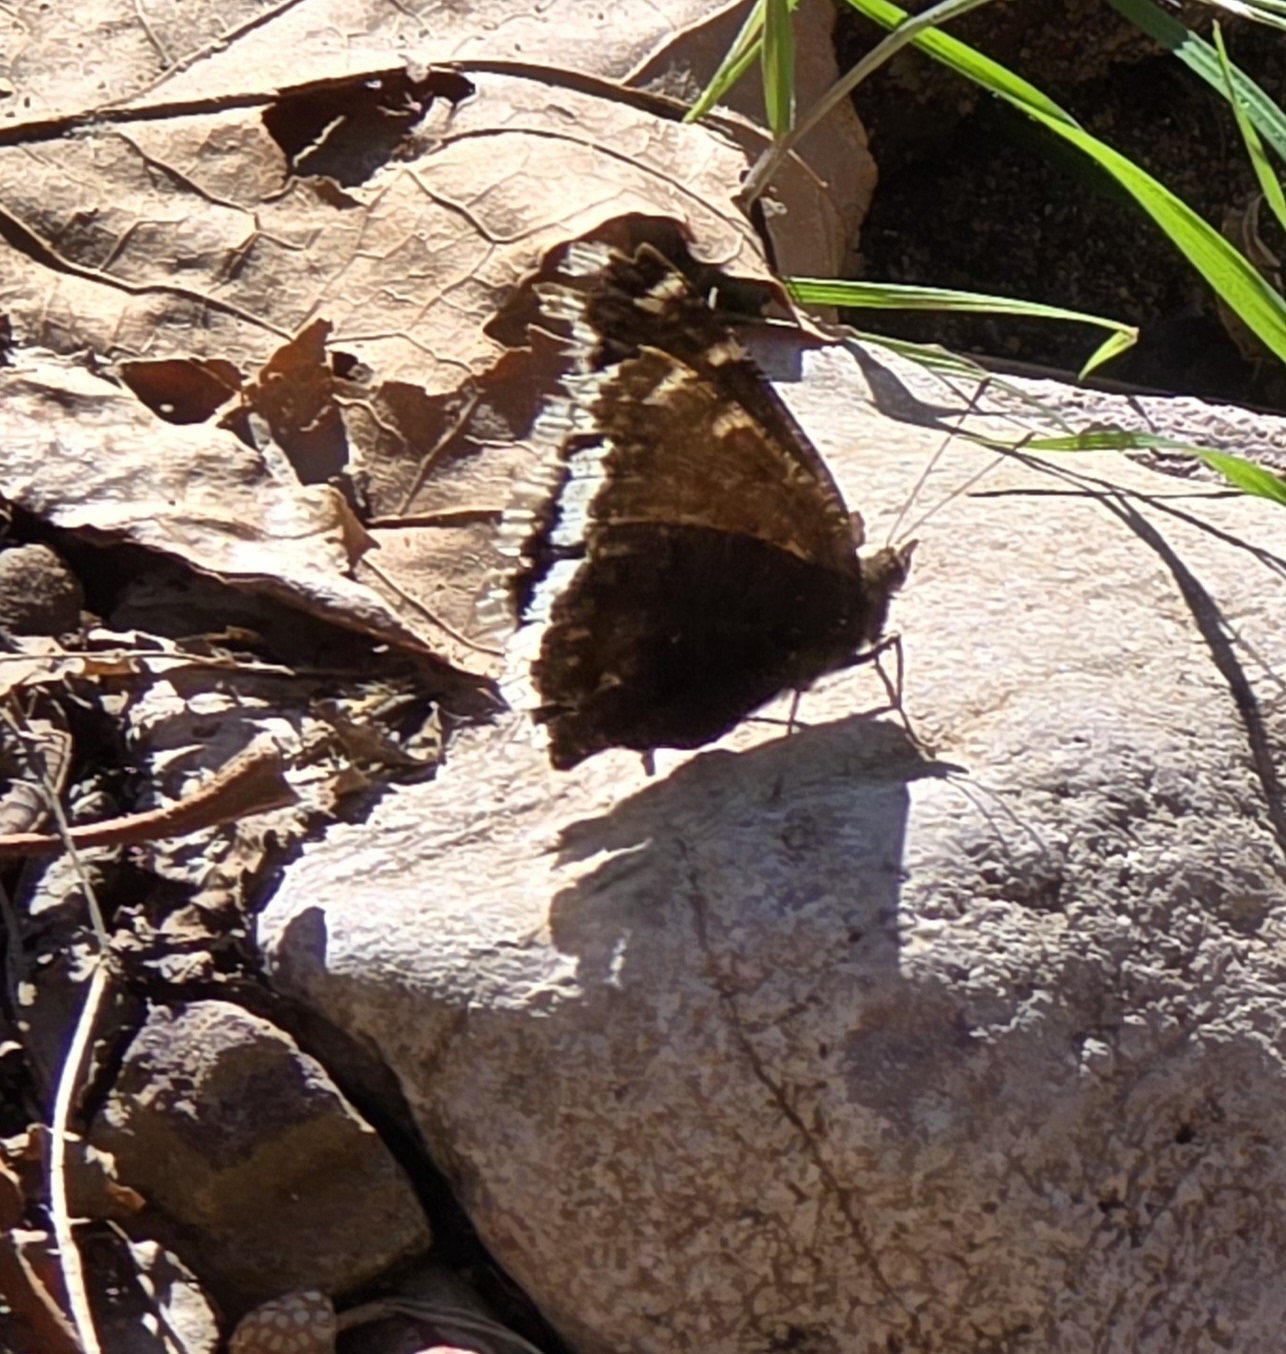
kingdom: Animalia
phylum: Arthropoda
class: Insecta
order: Lepidoptera
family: Nymphalidae
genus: Nymphalis
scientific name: Nymphalis antiopa
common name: Camberwell beauty
